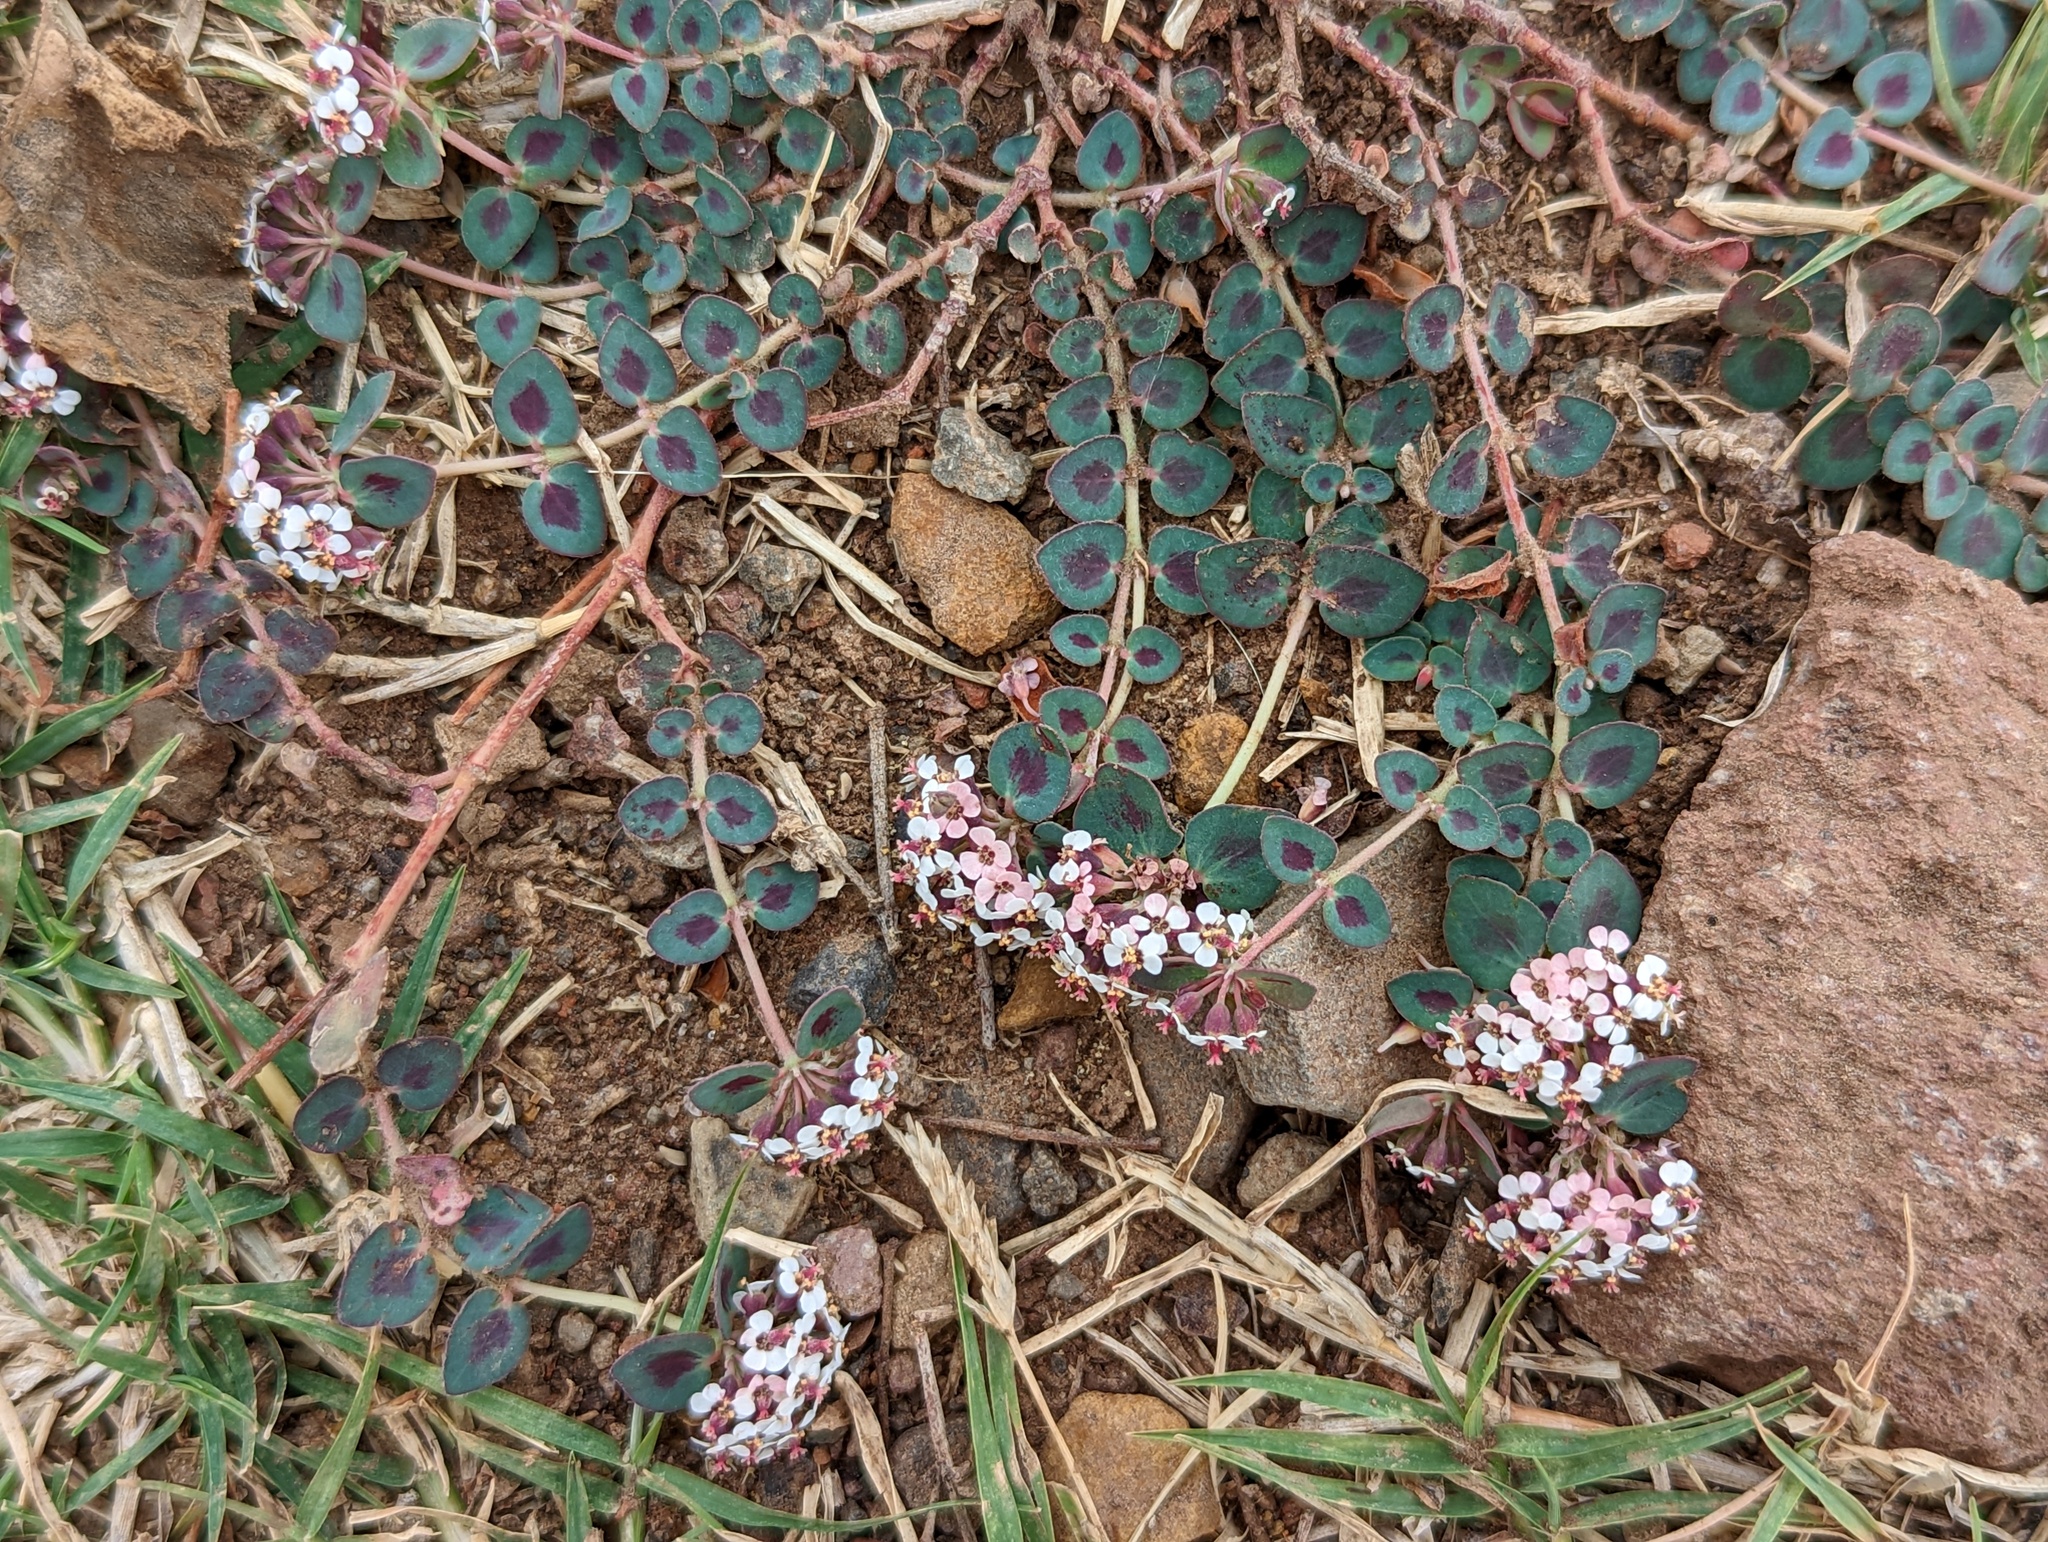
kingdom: Plantae
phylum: Tracheophyta
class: Magnoliopsida
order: Malpighiales
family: Euphorbiaceae
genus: Euphorbia
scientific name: Euphorbia umbellulata
